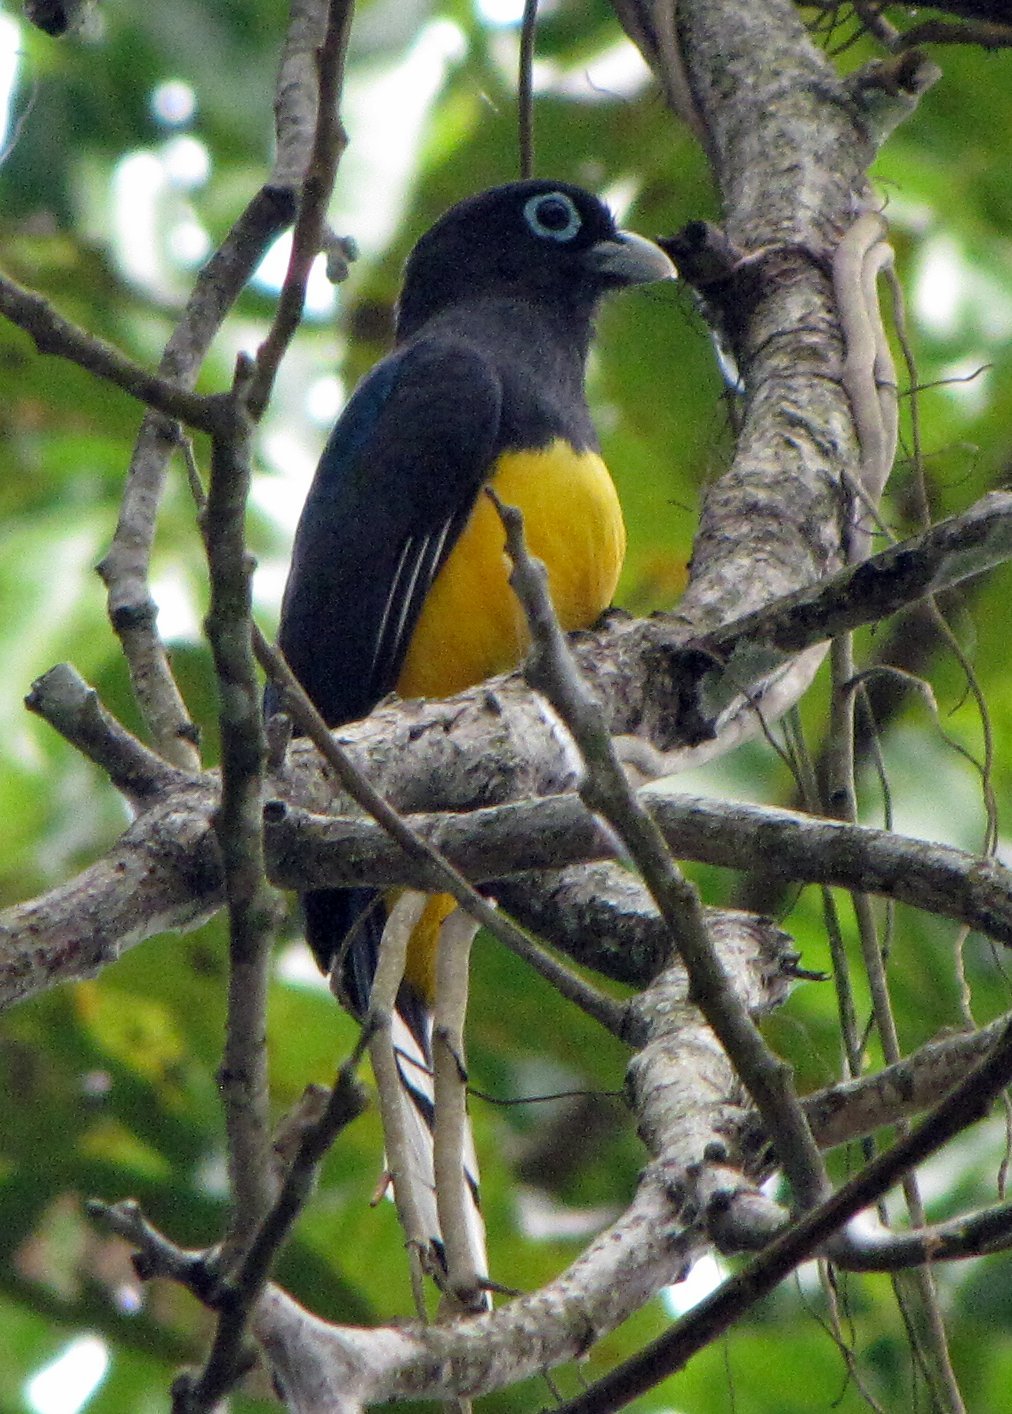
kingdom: Animalia
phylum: Chordata
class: Aves
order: Trogoniformes
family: Trogonidae
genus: Trogon
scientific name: Trogon melanocephalus
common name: Black-headed trogon
